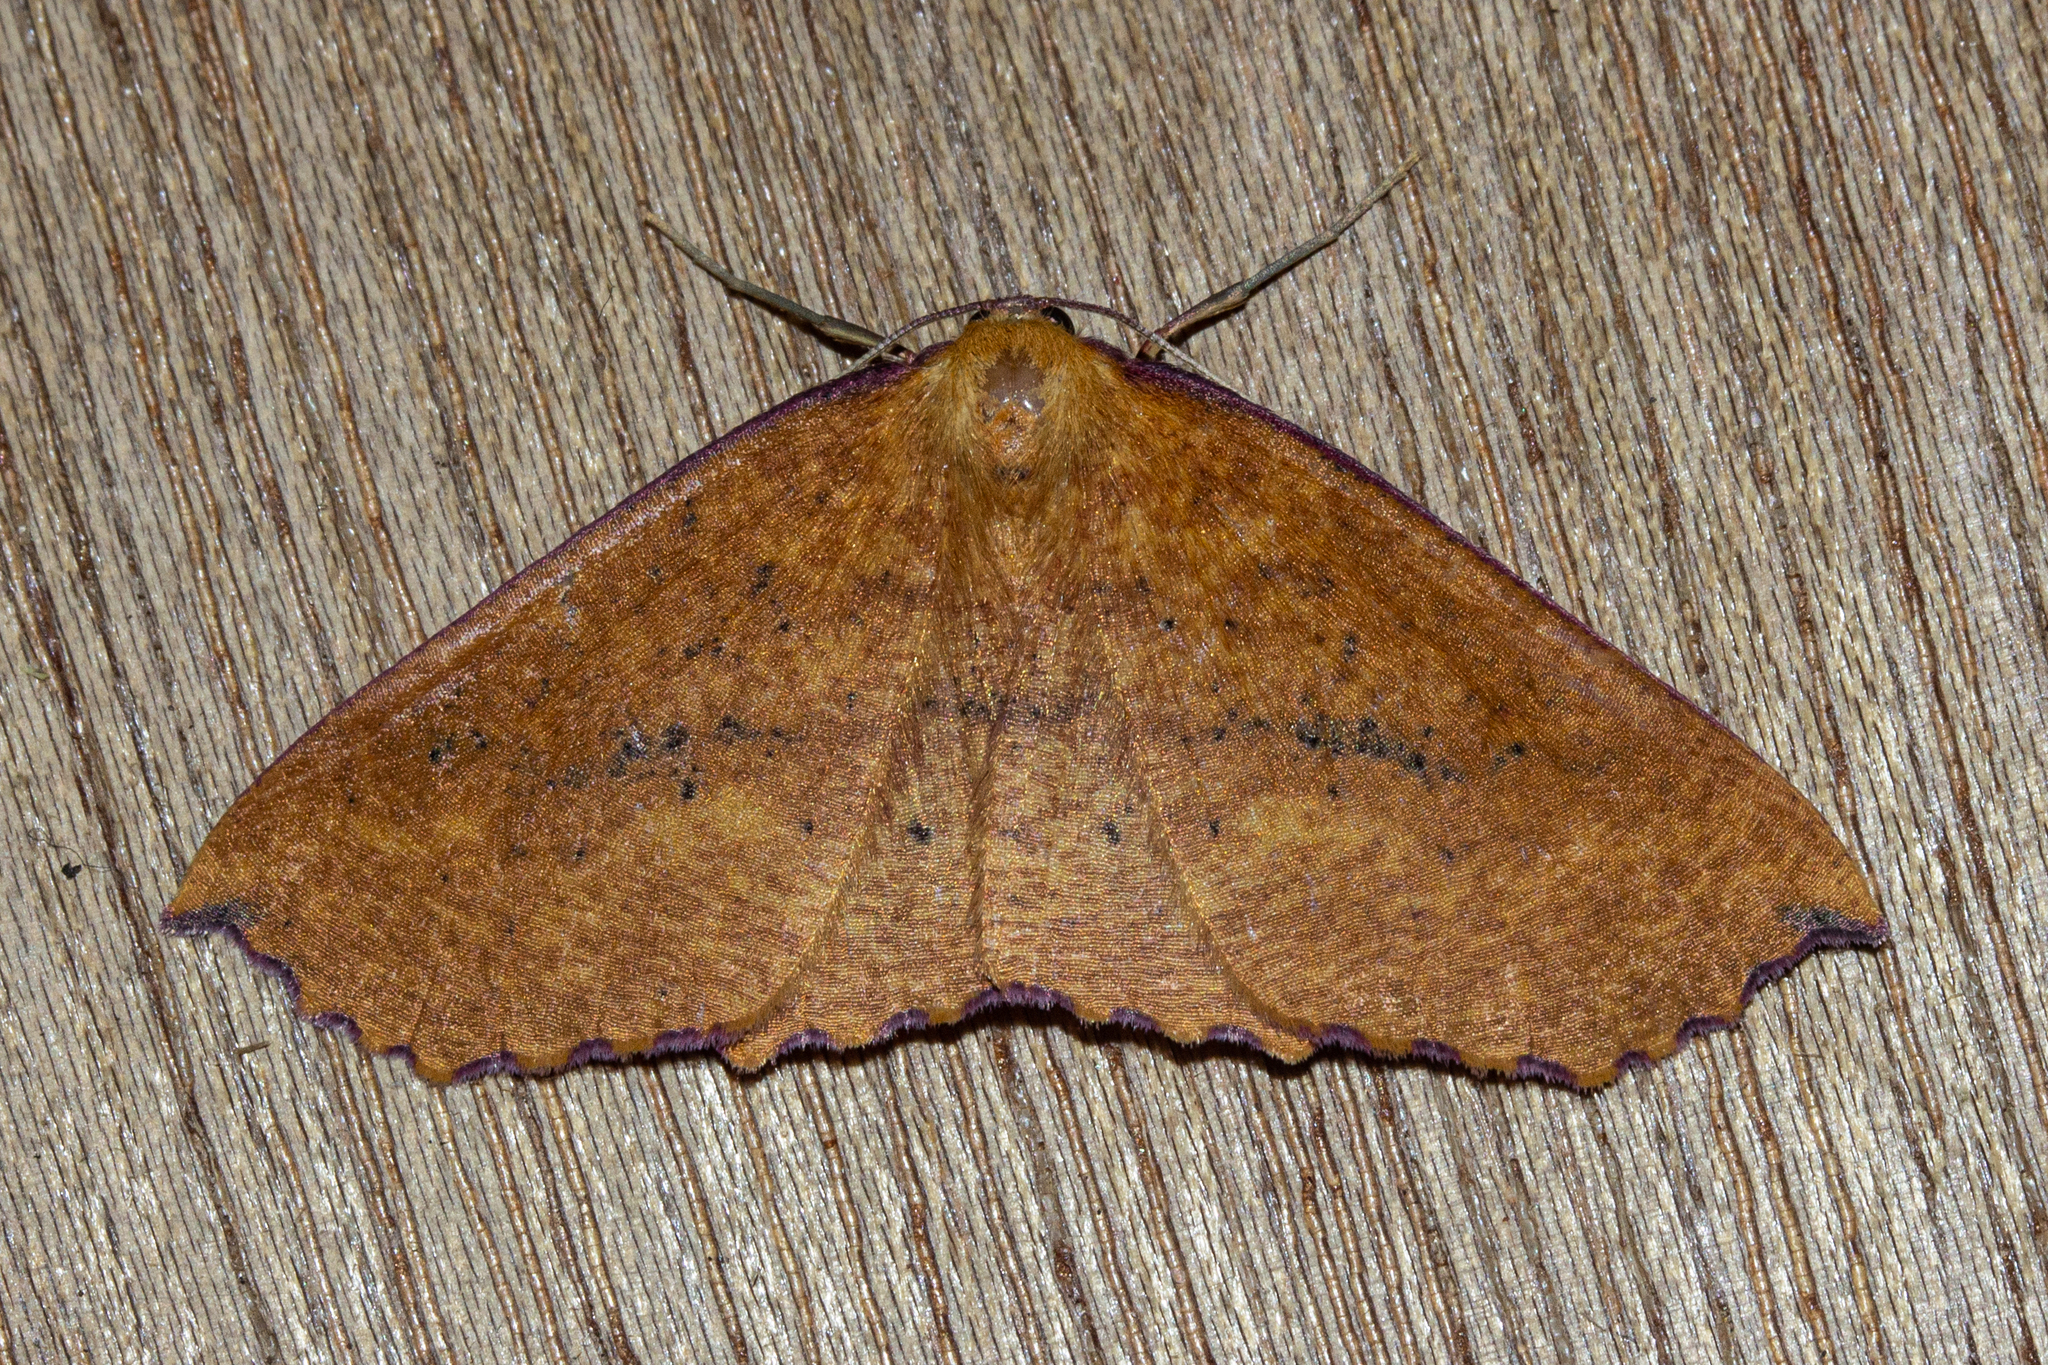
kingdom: Animalia
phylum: Arthropoda
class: Insecta
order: Lepidoptera
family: Geometridae
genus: Xyridacma
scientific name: Xyridacma alectoraria
